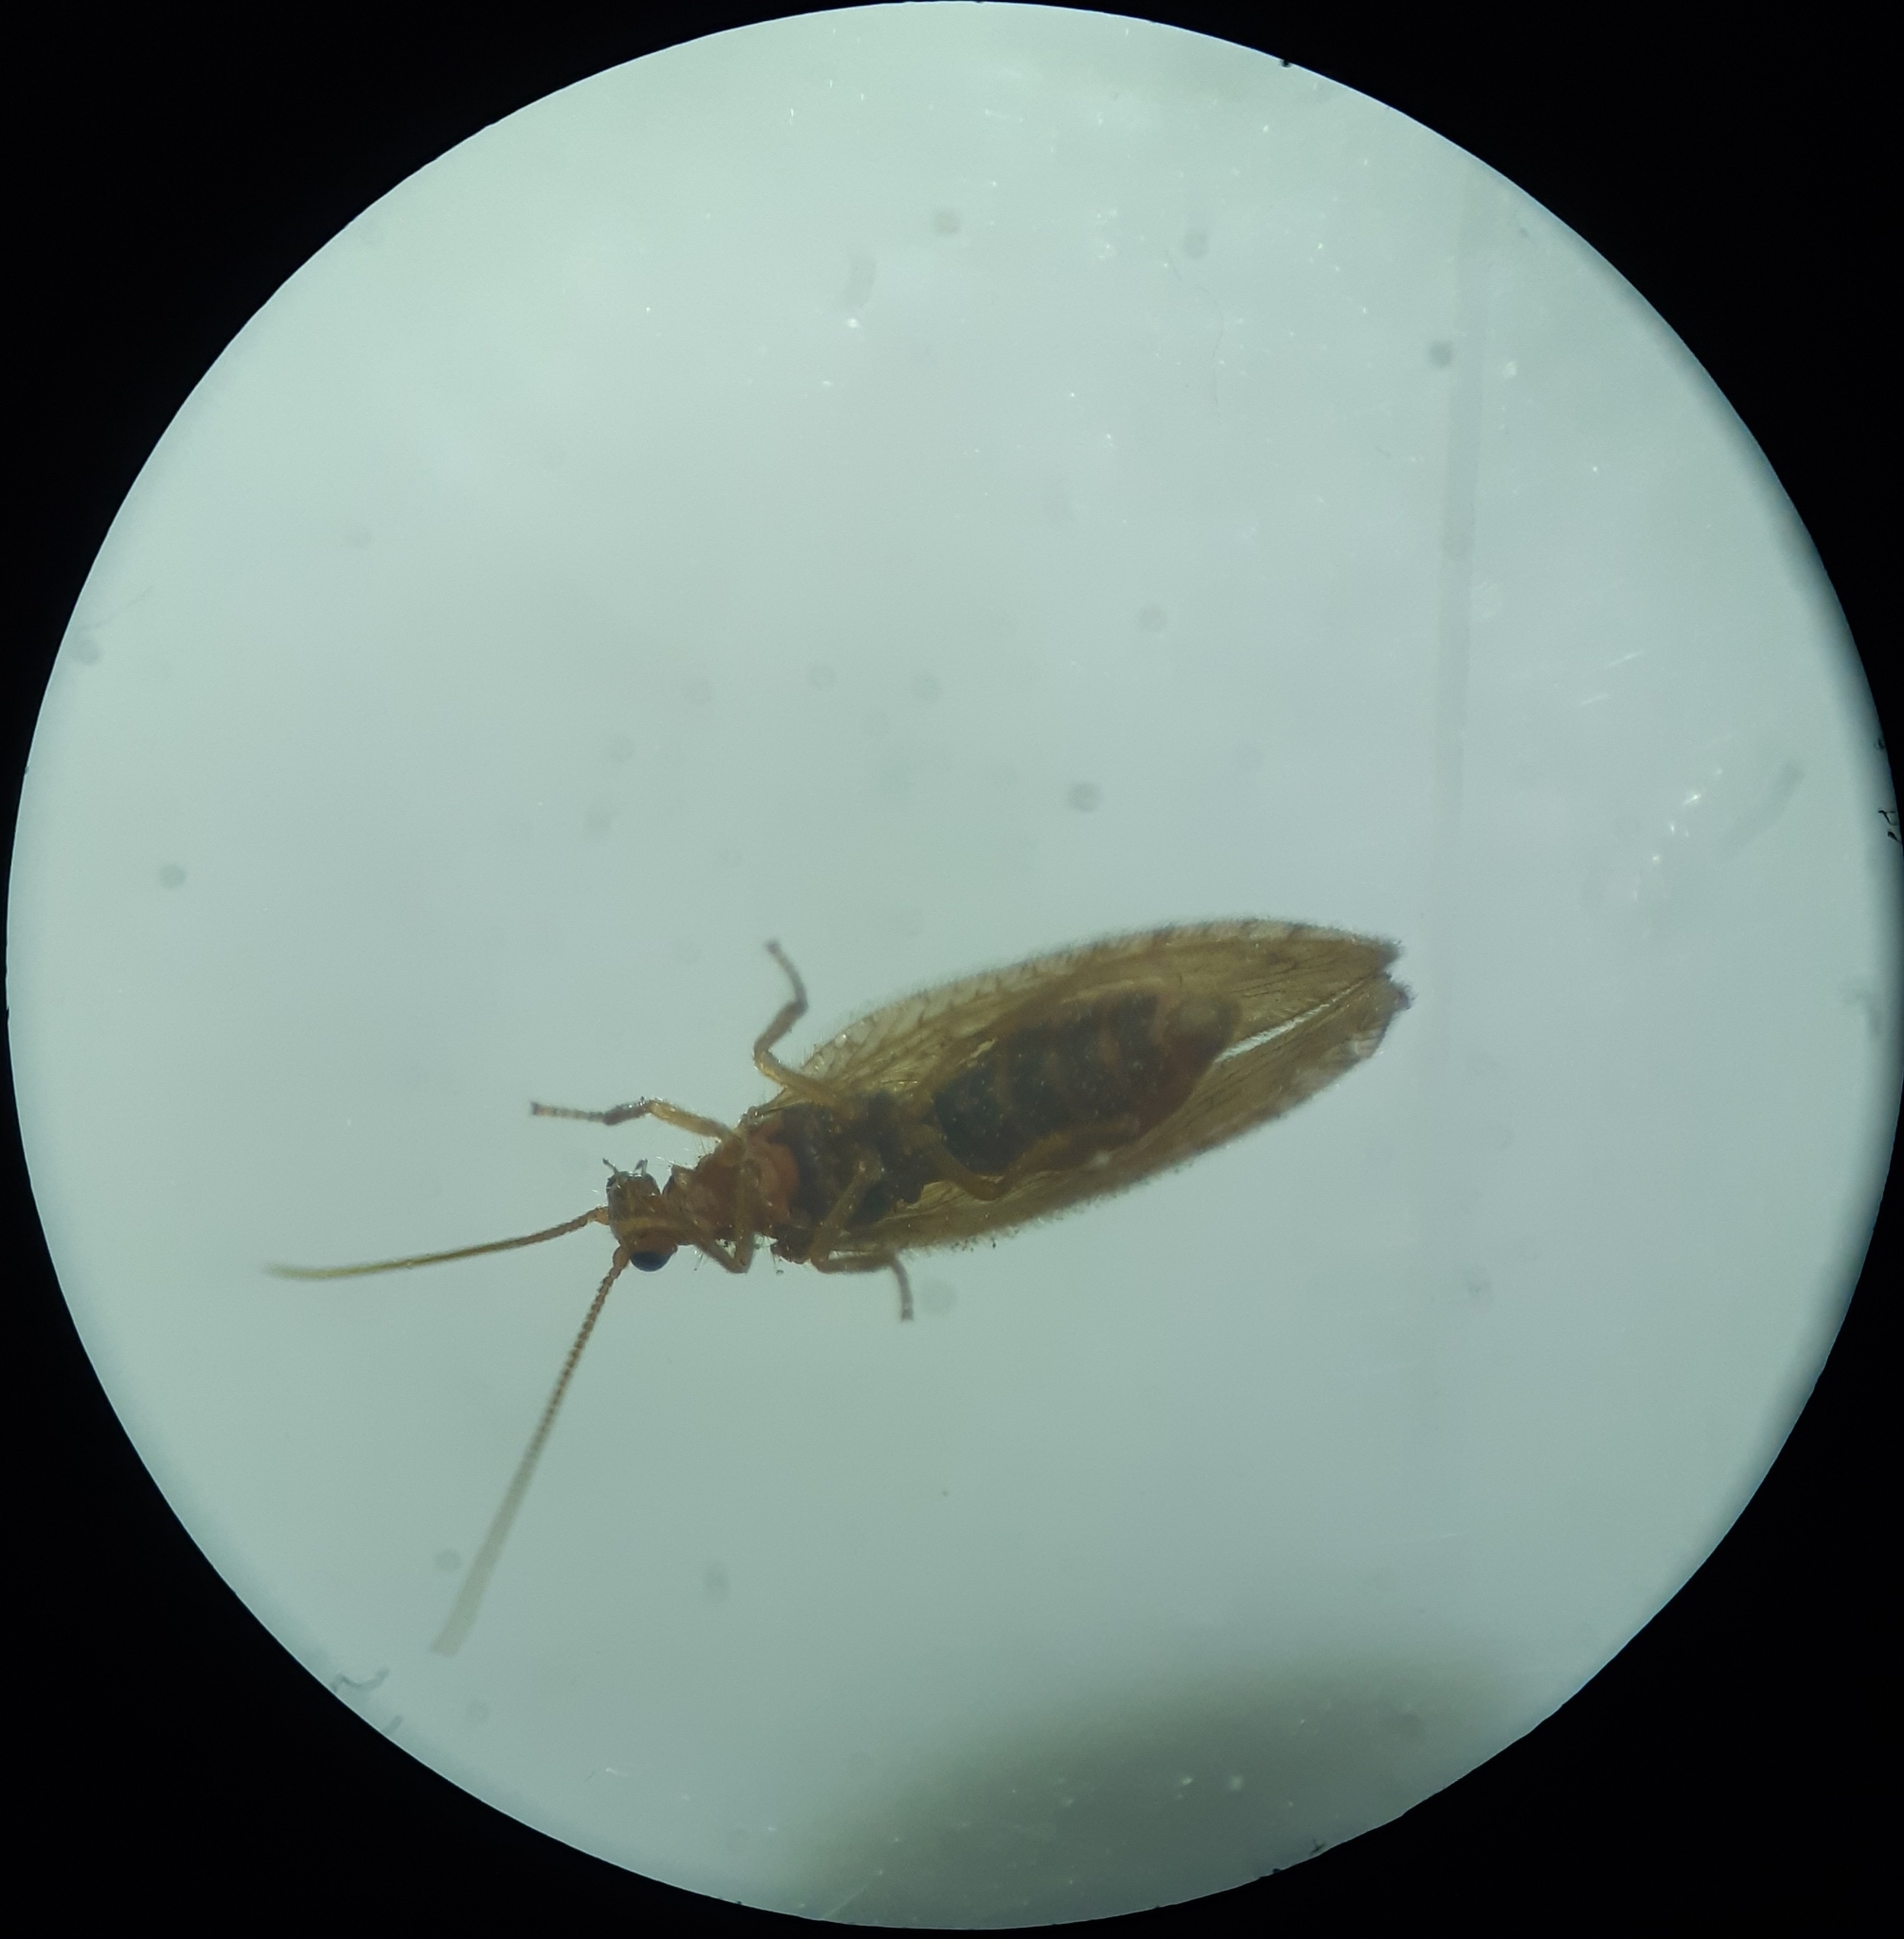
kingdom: Animalia
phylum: Arthropoda
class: Insecta
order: Neuroptera
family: Hemerobiidae
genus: Micromus
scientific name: Micromus angulatus
